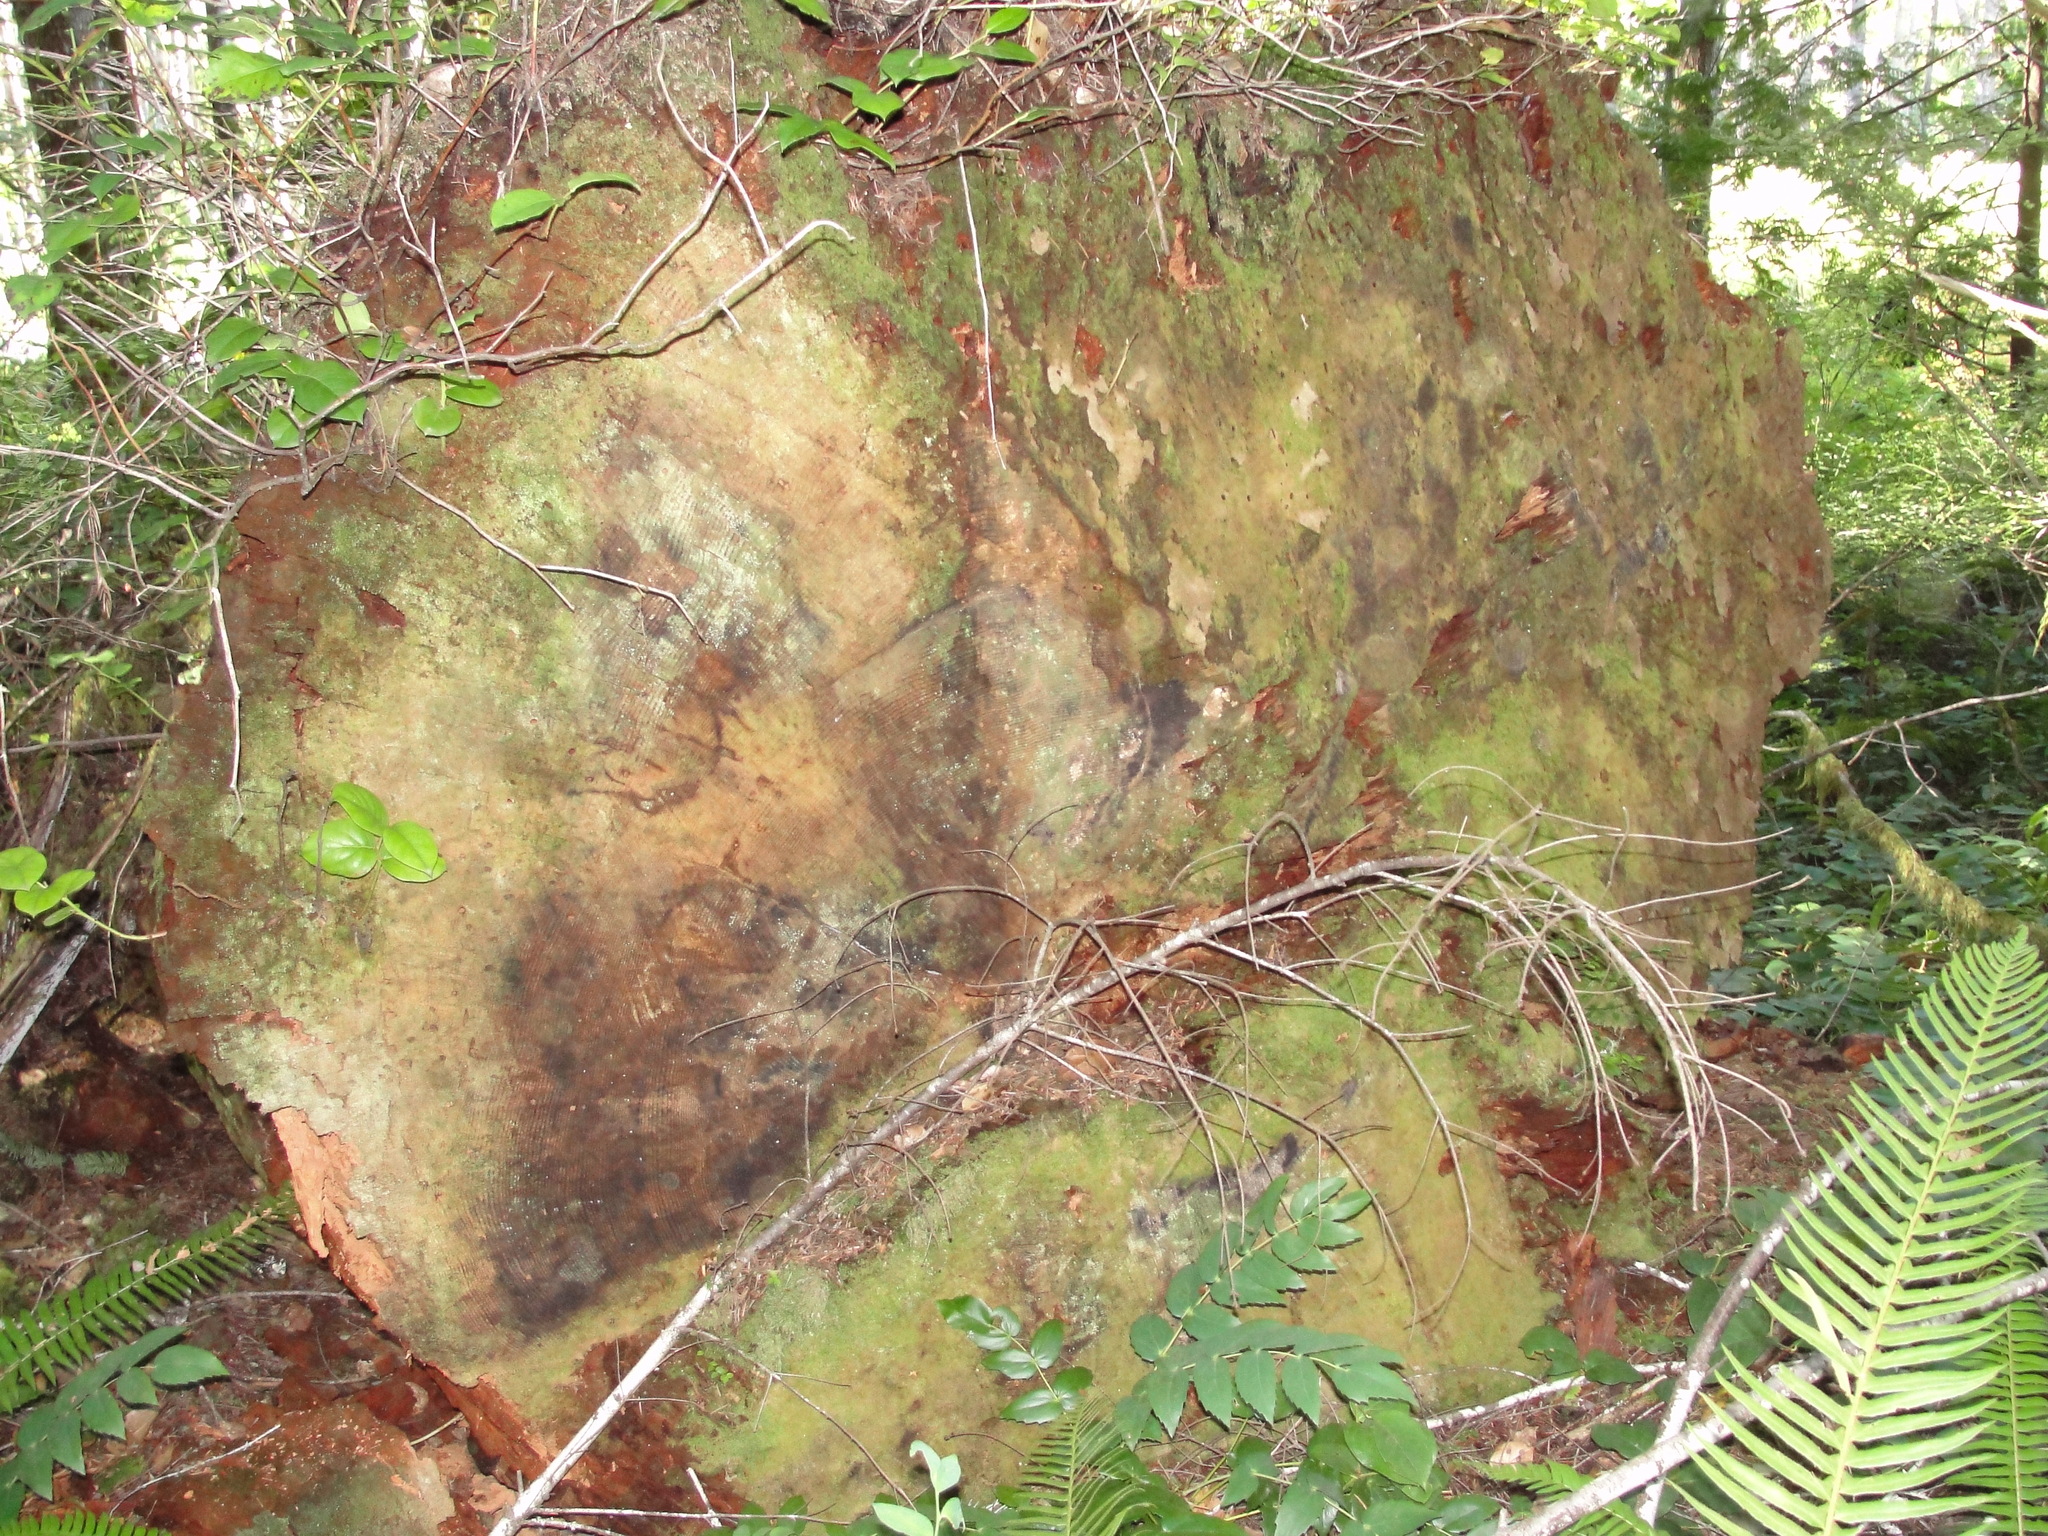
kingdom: Plantae
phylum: Tracheophyta
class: Pinopsida
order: Pinales
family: Pinaceae
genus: Pseudotsuga
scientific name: Pseudotsuga menziesii
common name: Douglas fir
